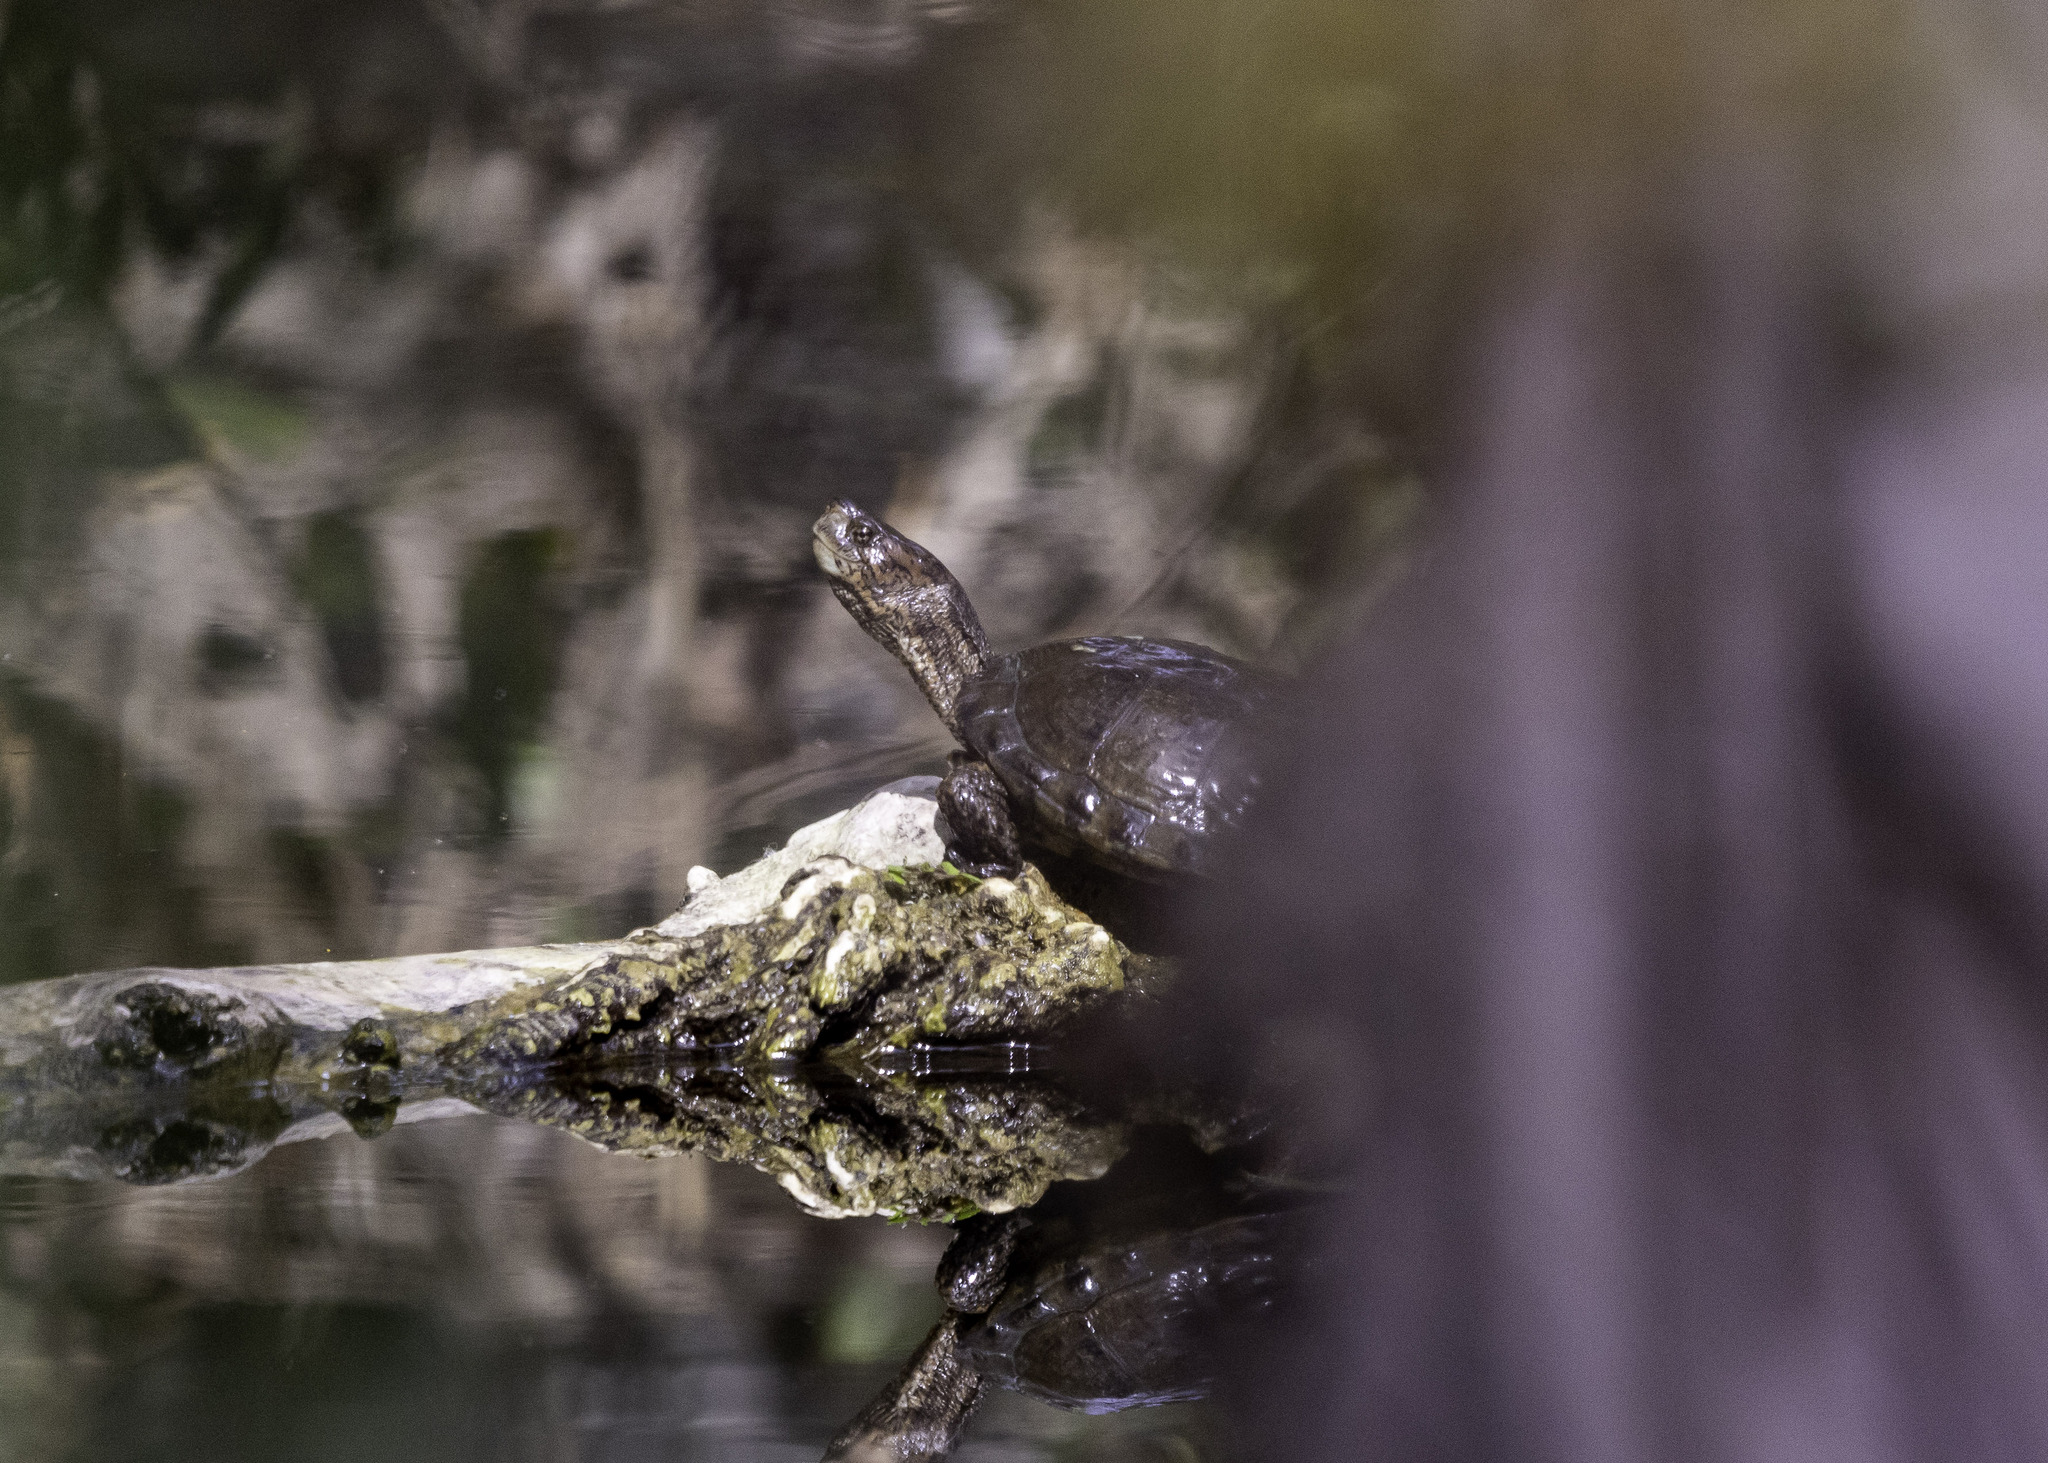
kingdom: Animalia
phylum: Chordata
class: Testudines
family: Emydidae
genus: Actinemys
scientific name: Actinemys pallida
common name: Southern pacific pond turtle
